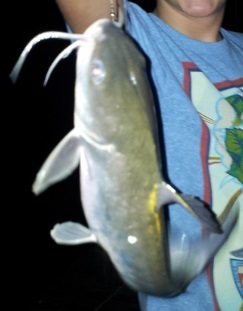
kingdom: Animalia
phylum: Chordata
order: Siluriformes
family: Ariidae
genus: Ariopsis
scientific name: Ariopsis felis
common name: Hardhead catfish
